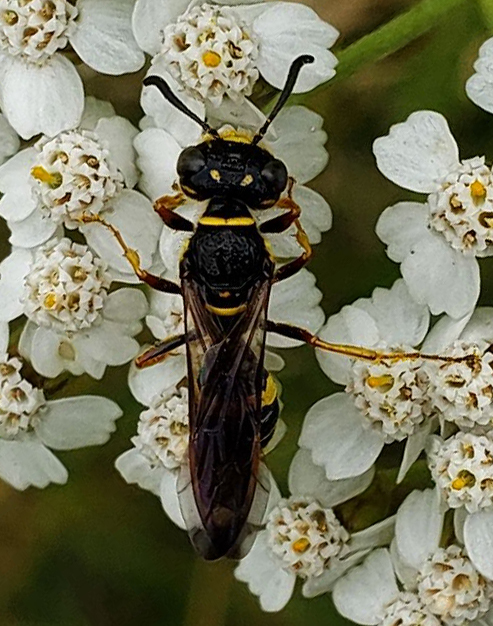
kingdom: Animalia
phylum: Arthropoda
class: Insecta
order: Hymenoptera
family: Crabronidae
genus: Philanthus
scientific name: Philanthus gibbosus
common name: Humped beewolf
